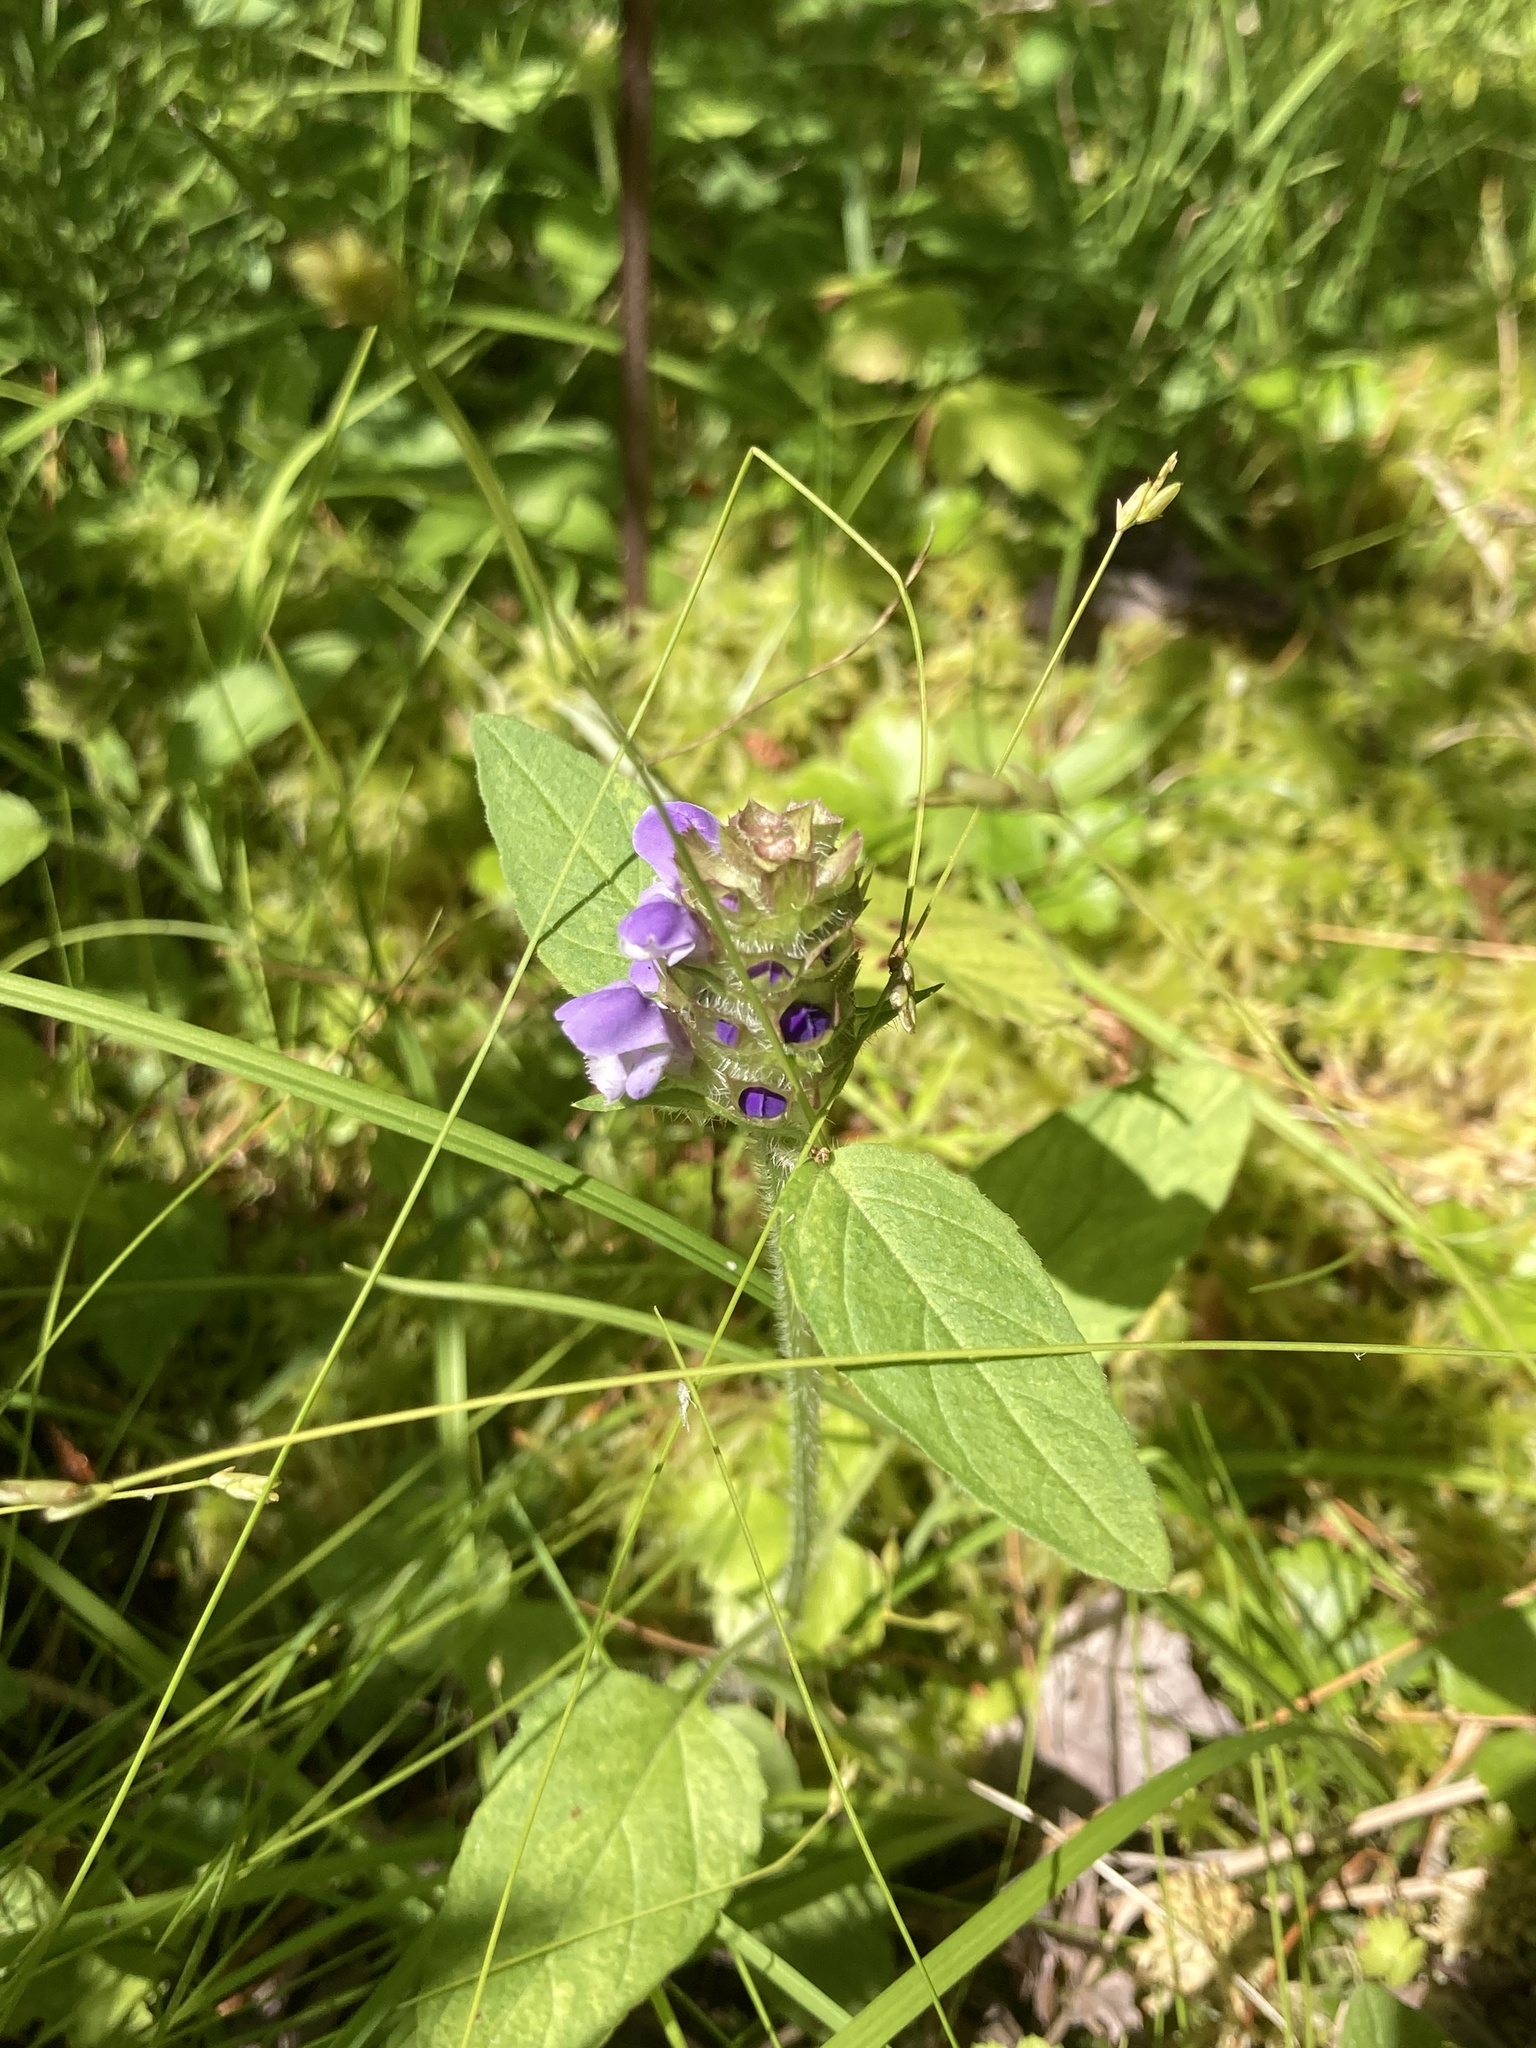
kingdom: Plantae
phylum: Tracheophyta
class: Magnoliopsida
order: Lamiales
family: Lamiaceae
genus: Prunella
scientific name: Prunella vulgaris
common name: Heal-all
